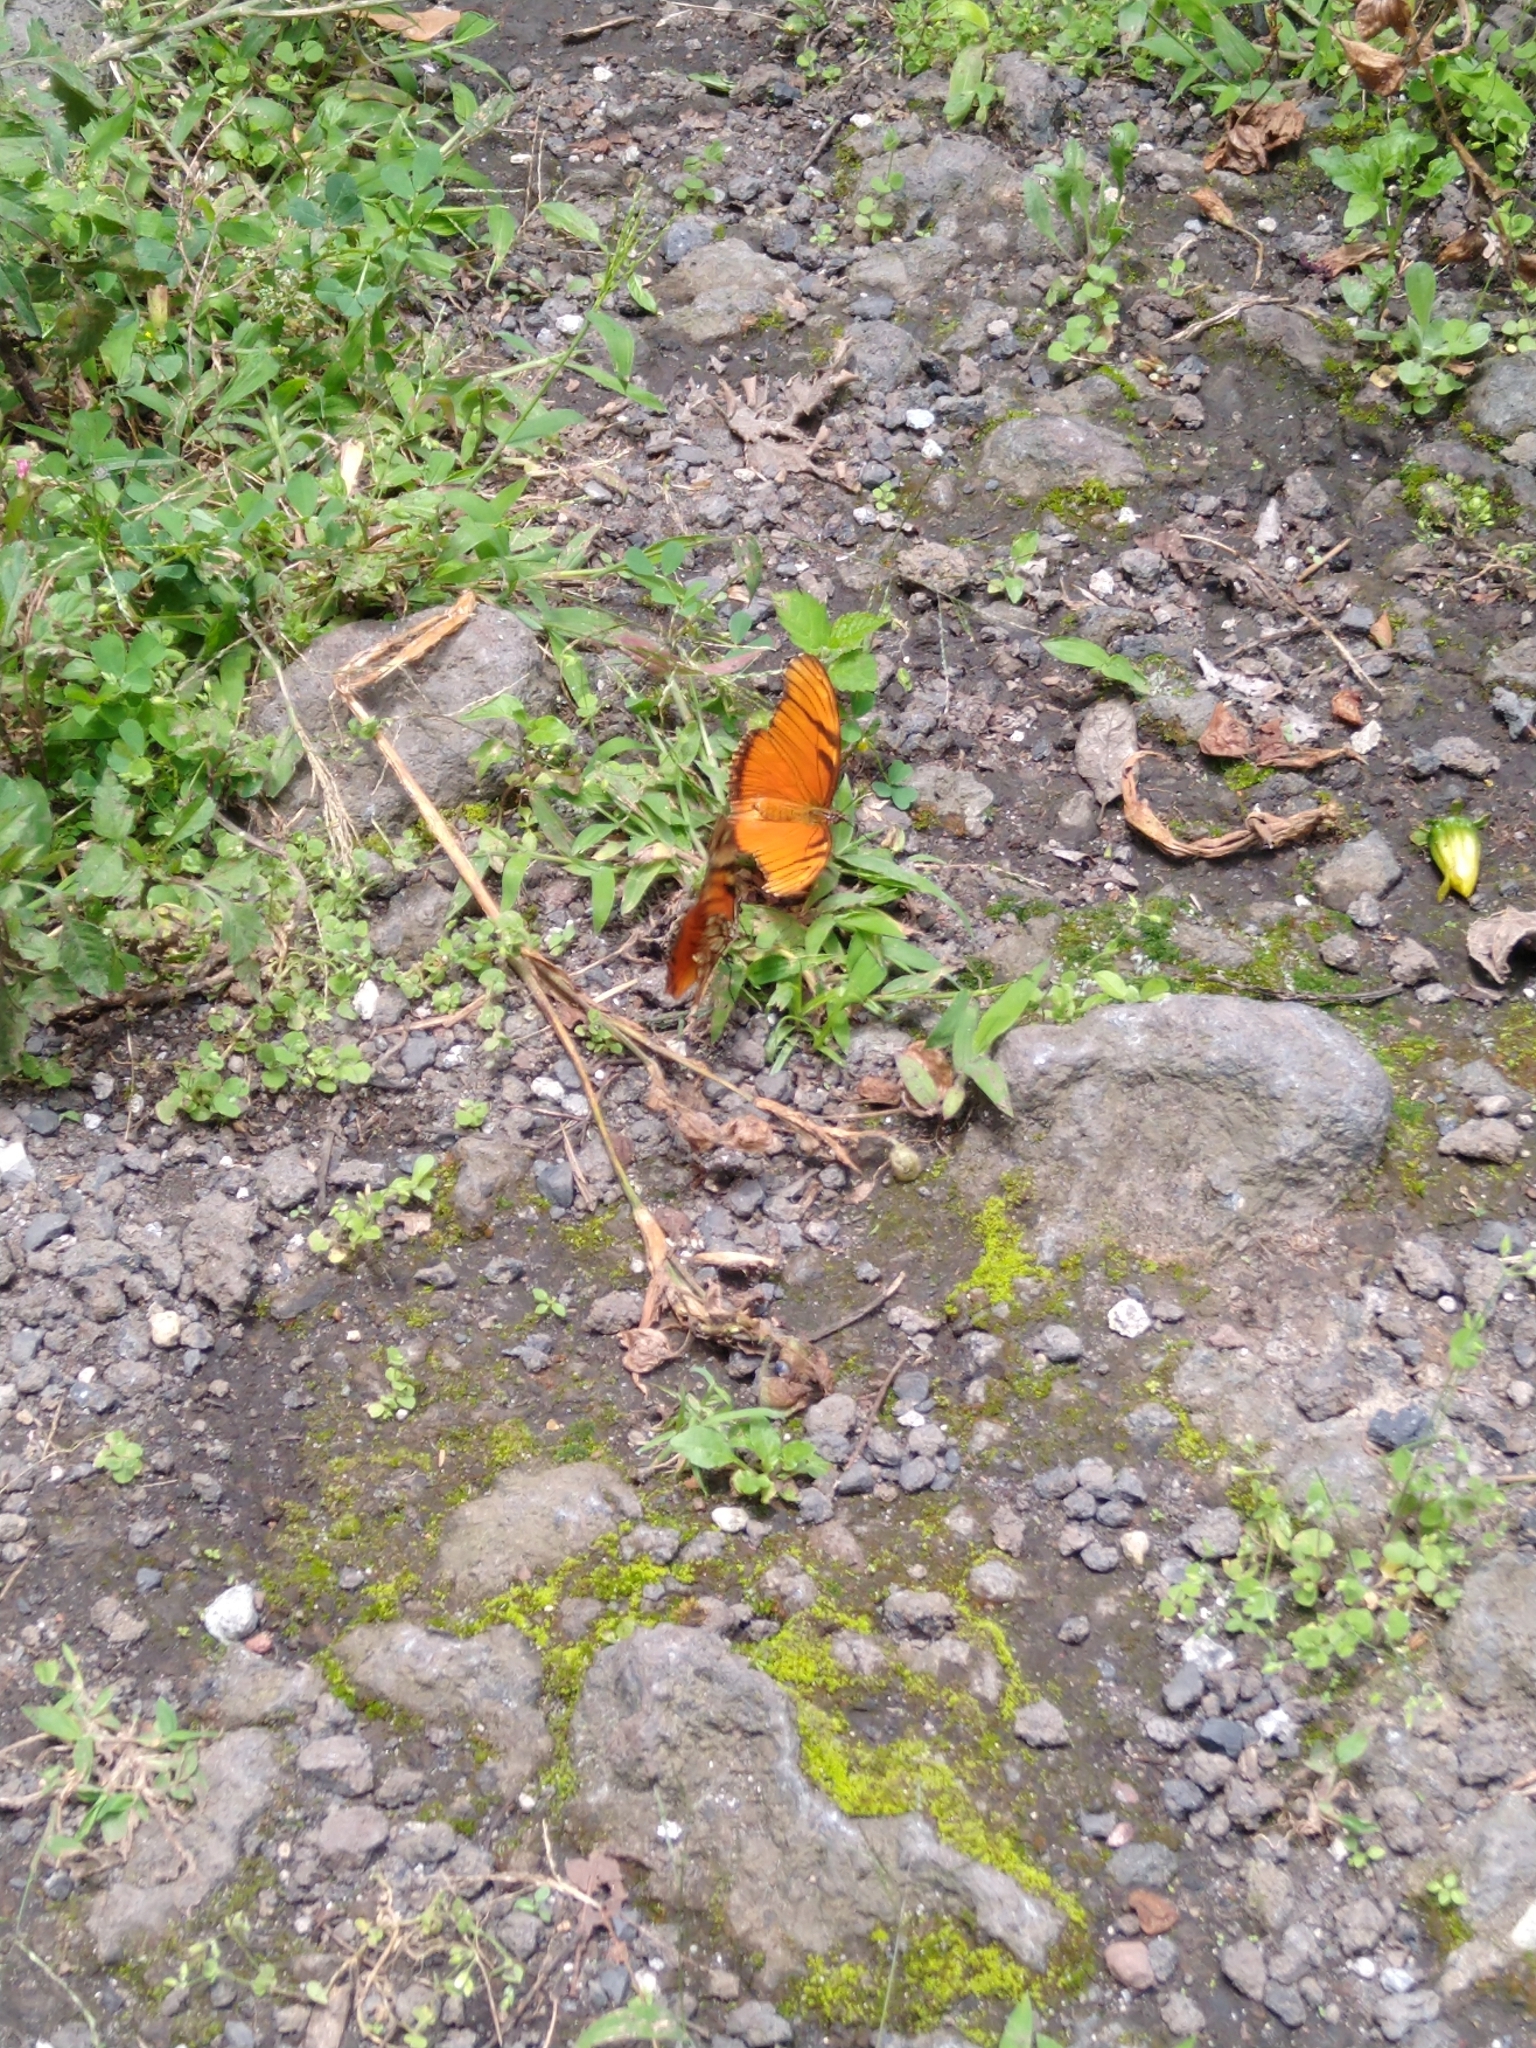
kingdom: Animalia
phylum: Arthropoda
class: Insecta
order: Lepidoptera
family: Nymphalidae
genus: Dione
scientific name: Dione juno
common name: Juno silverspot
